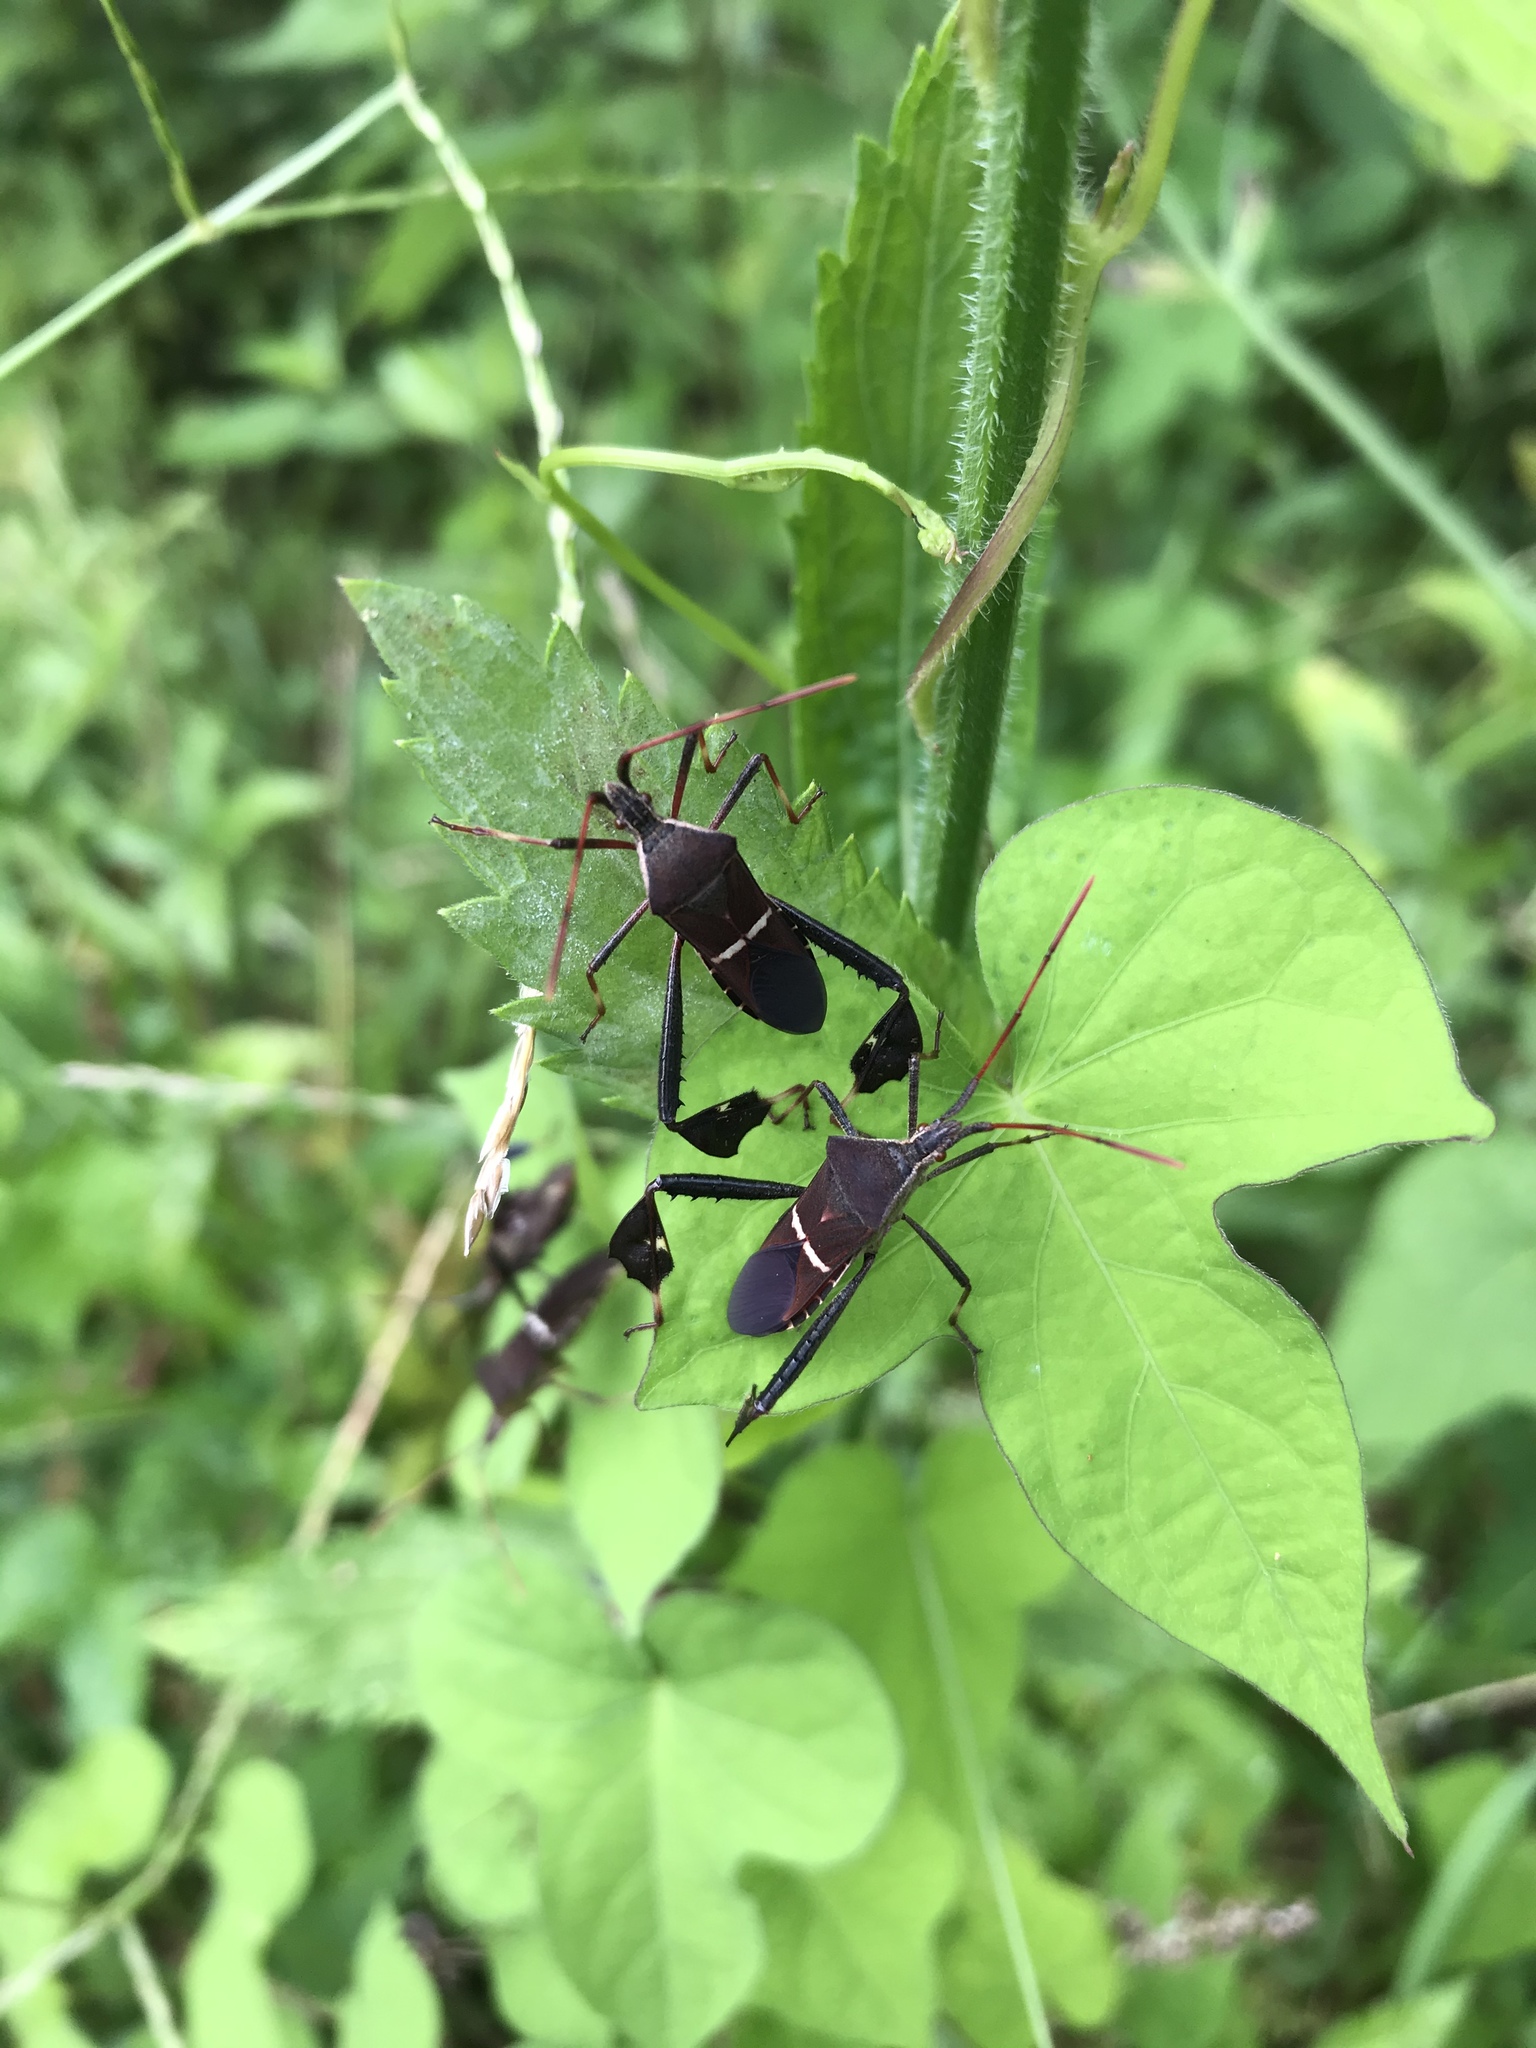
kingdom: Animalia
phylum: Arthropoda
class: Insecta
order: Hemiptera
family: Coreidae
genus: Leptoglossus
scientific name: Leptoglossus phyllopus
